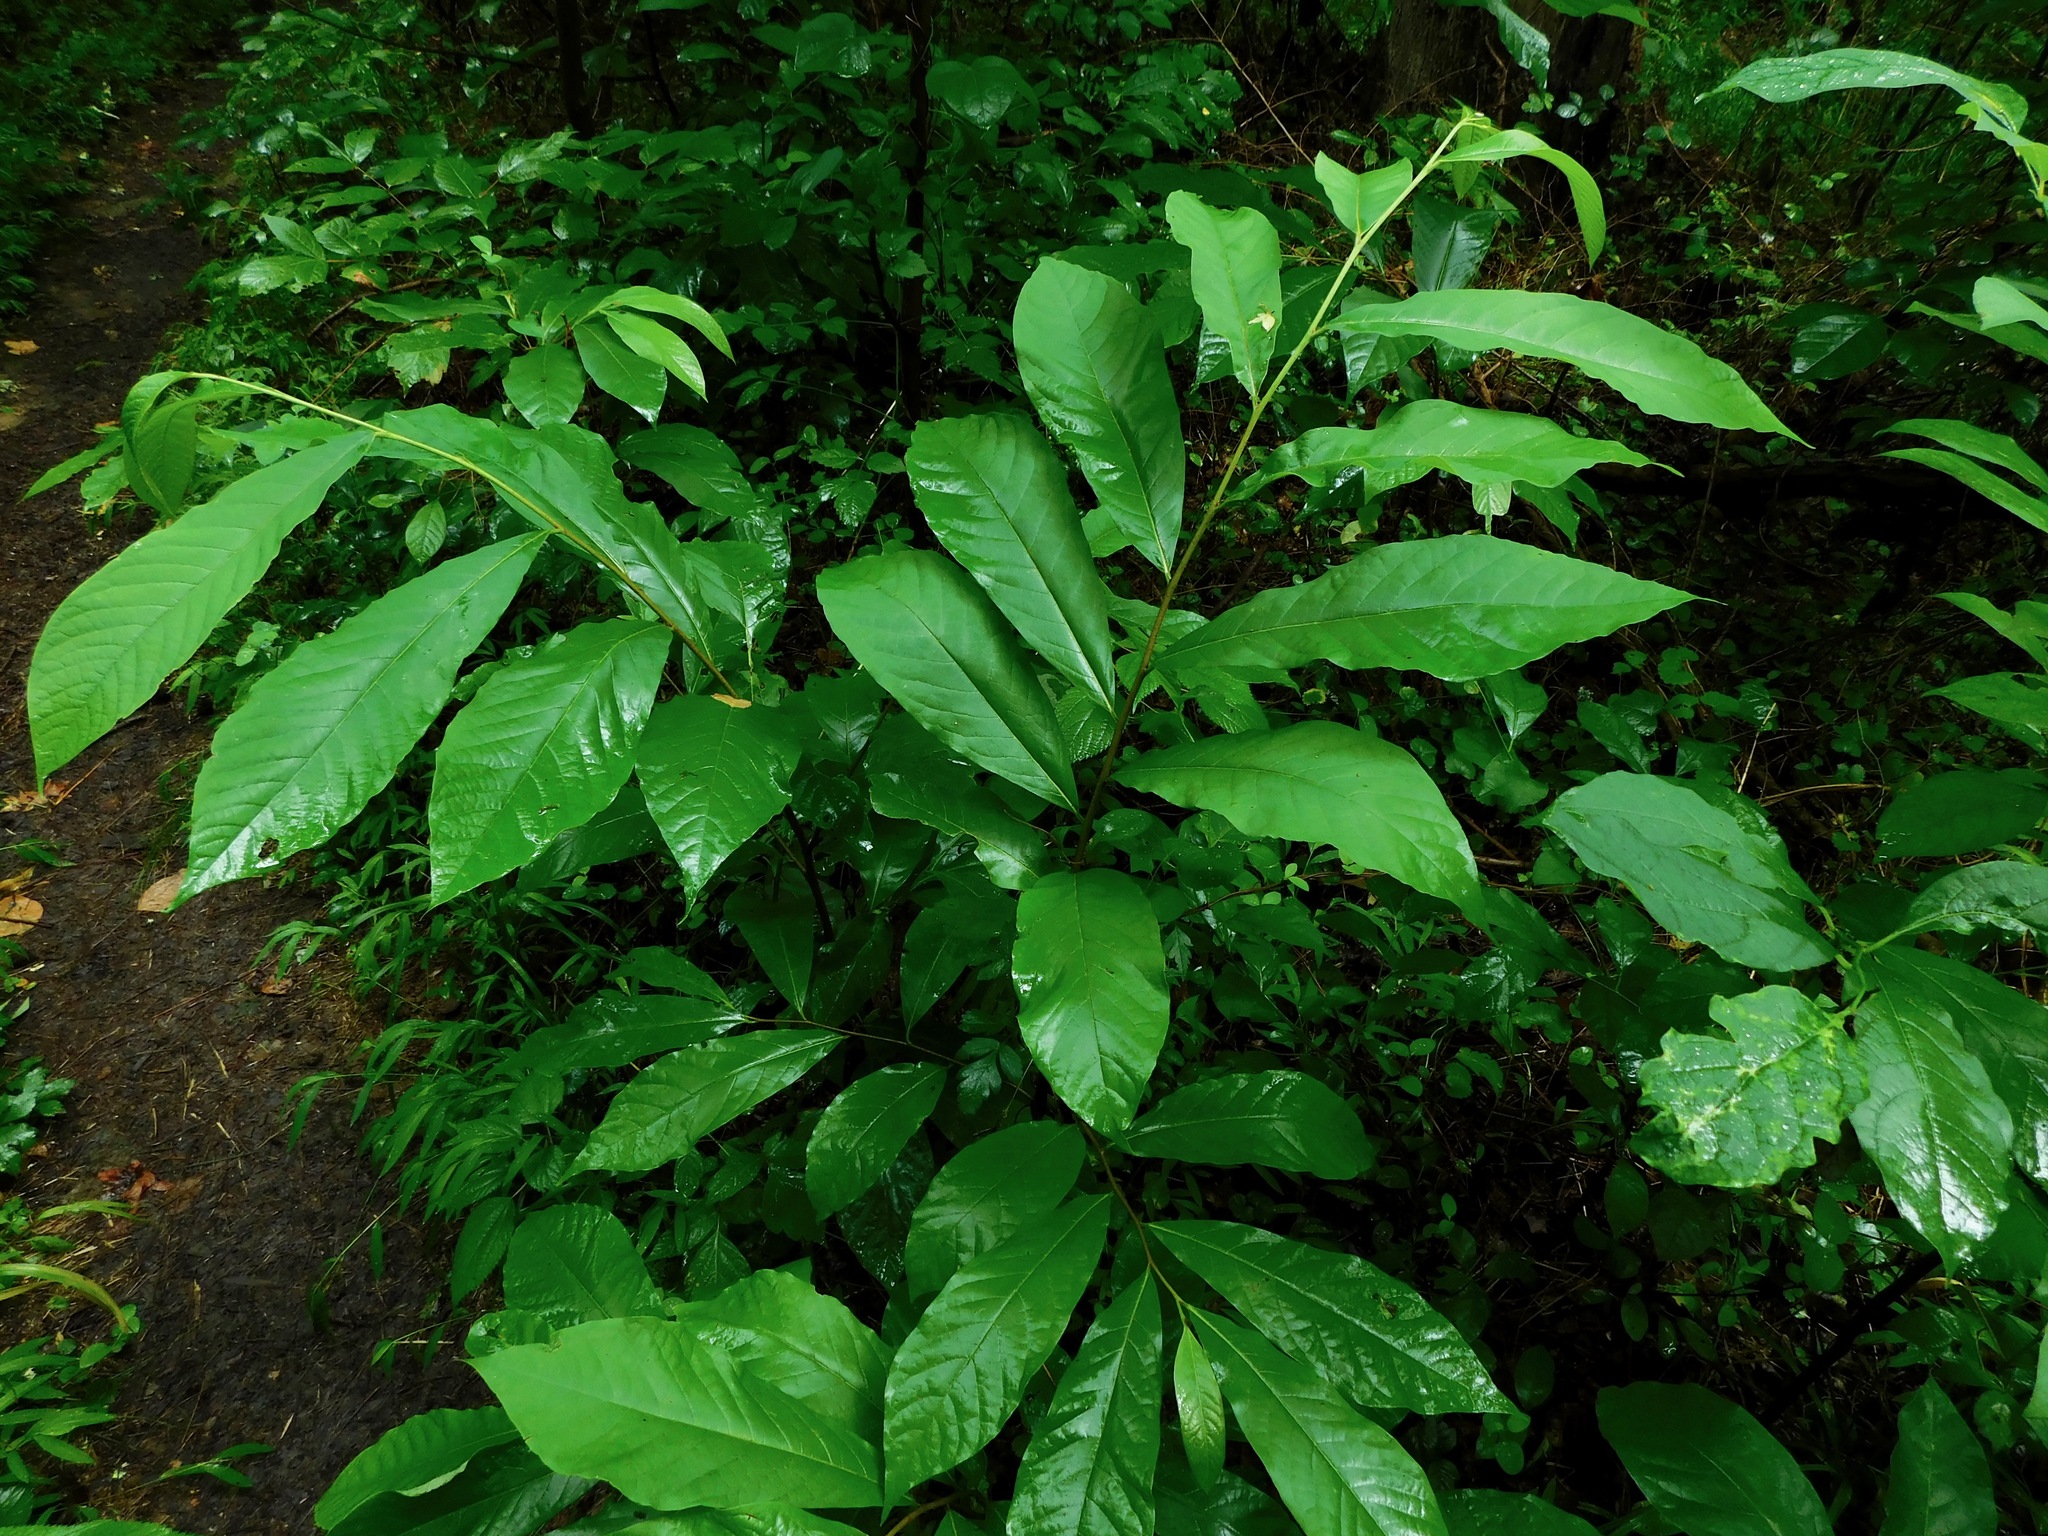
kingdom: Plantae
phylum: Tracheophyta
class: Magnoliopsida
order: Magnoliales
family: Annonaceae
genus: Asimina
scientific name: Asimina triloba
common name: Dog-banana
